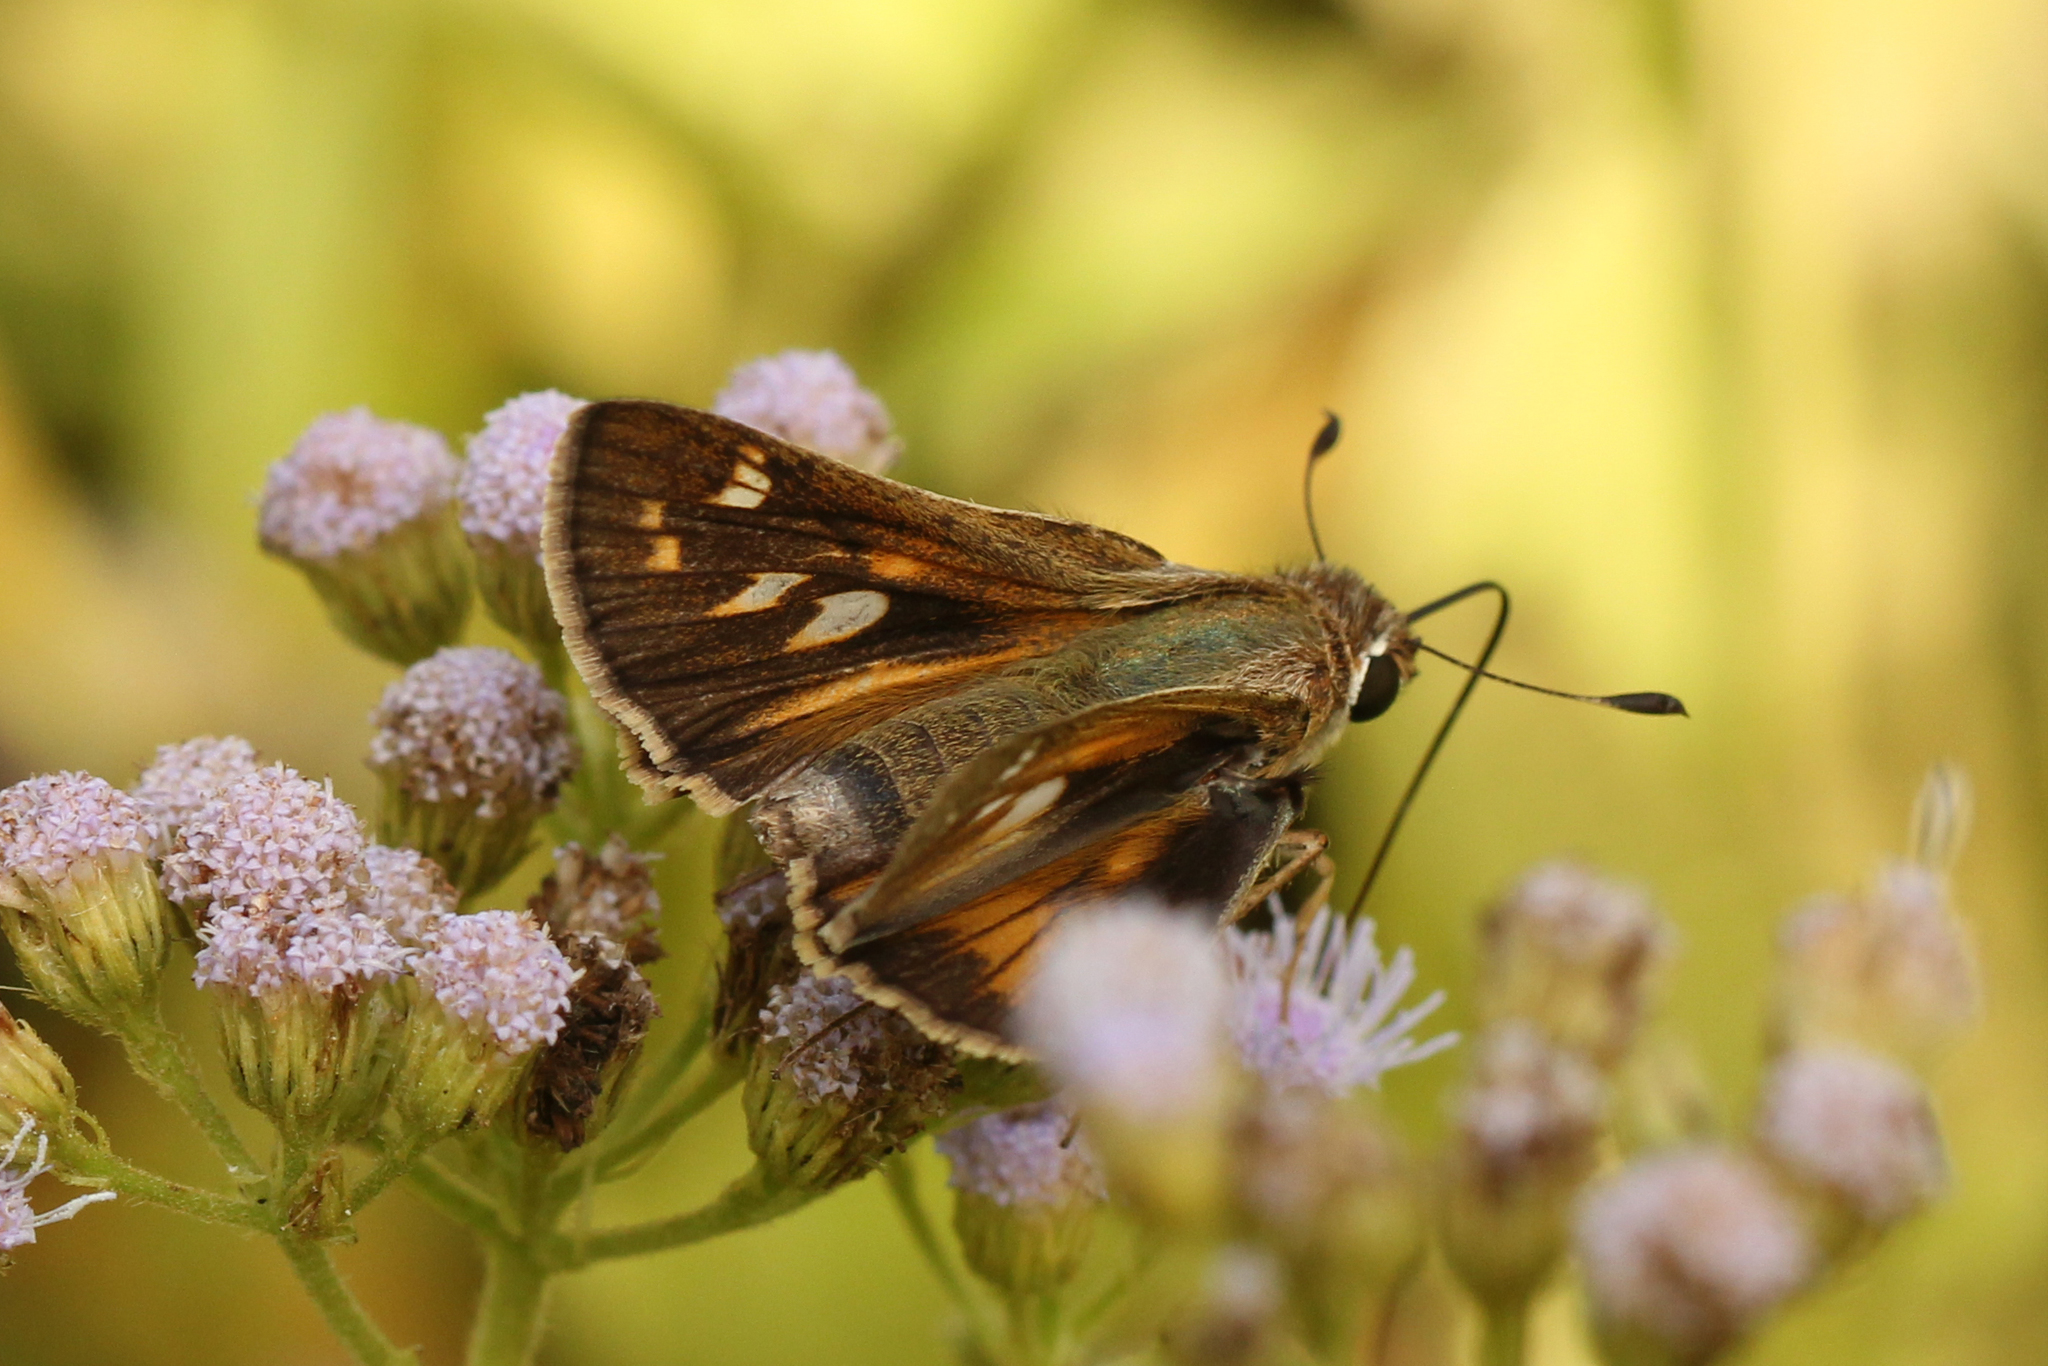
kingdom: Animalia
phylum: Arthropoda
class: Insecta
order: Lepidoptera
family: Hesperiidae
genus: Atalopedes
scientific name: Atalopedes
